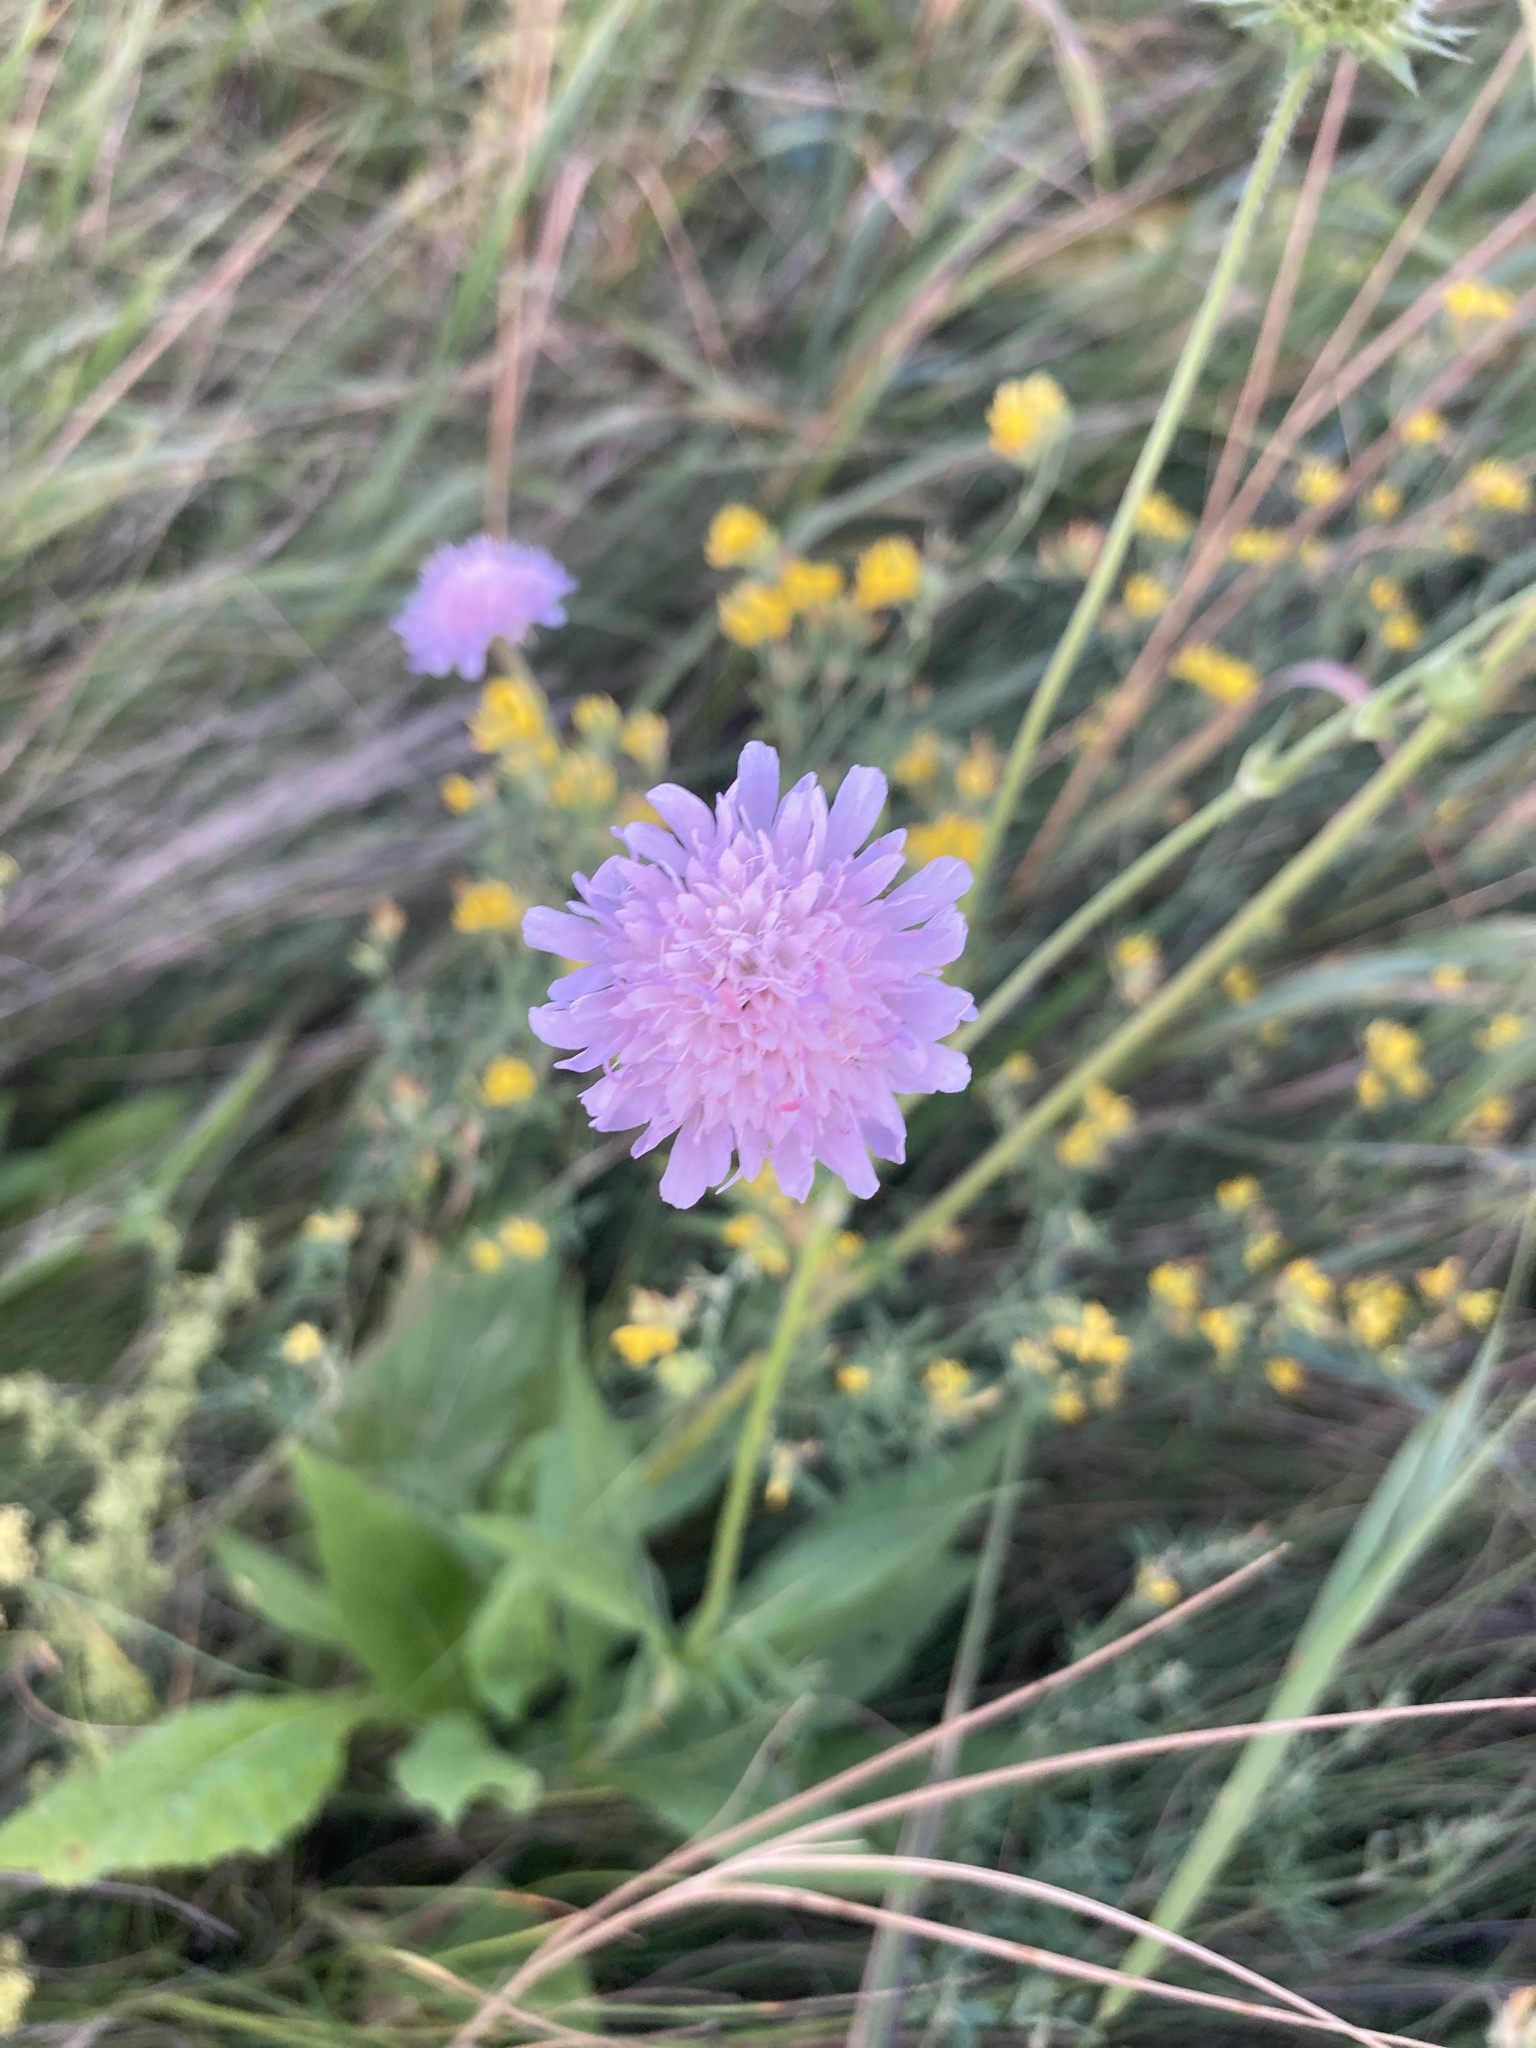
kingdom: Plantae
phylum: Tracheophyta
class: Magnoliopsida
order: Dipsacales
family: Caprifoliaceae
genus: Knautia
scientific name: Knautia arvensis
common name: Field scabiosa
